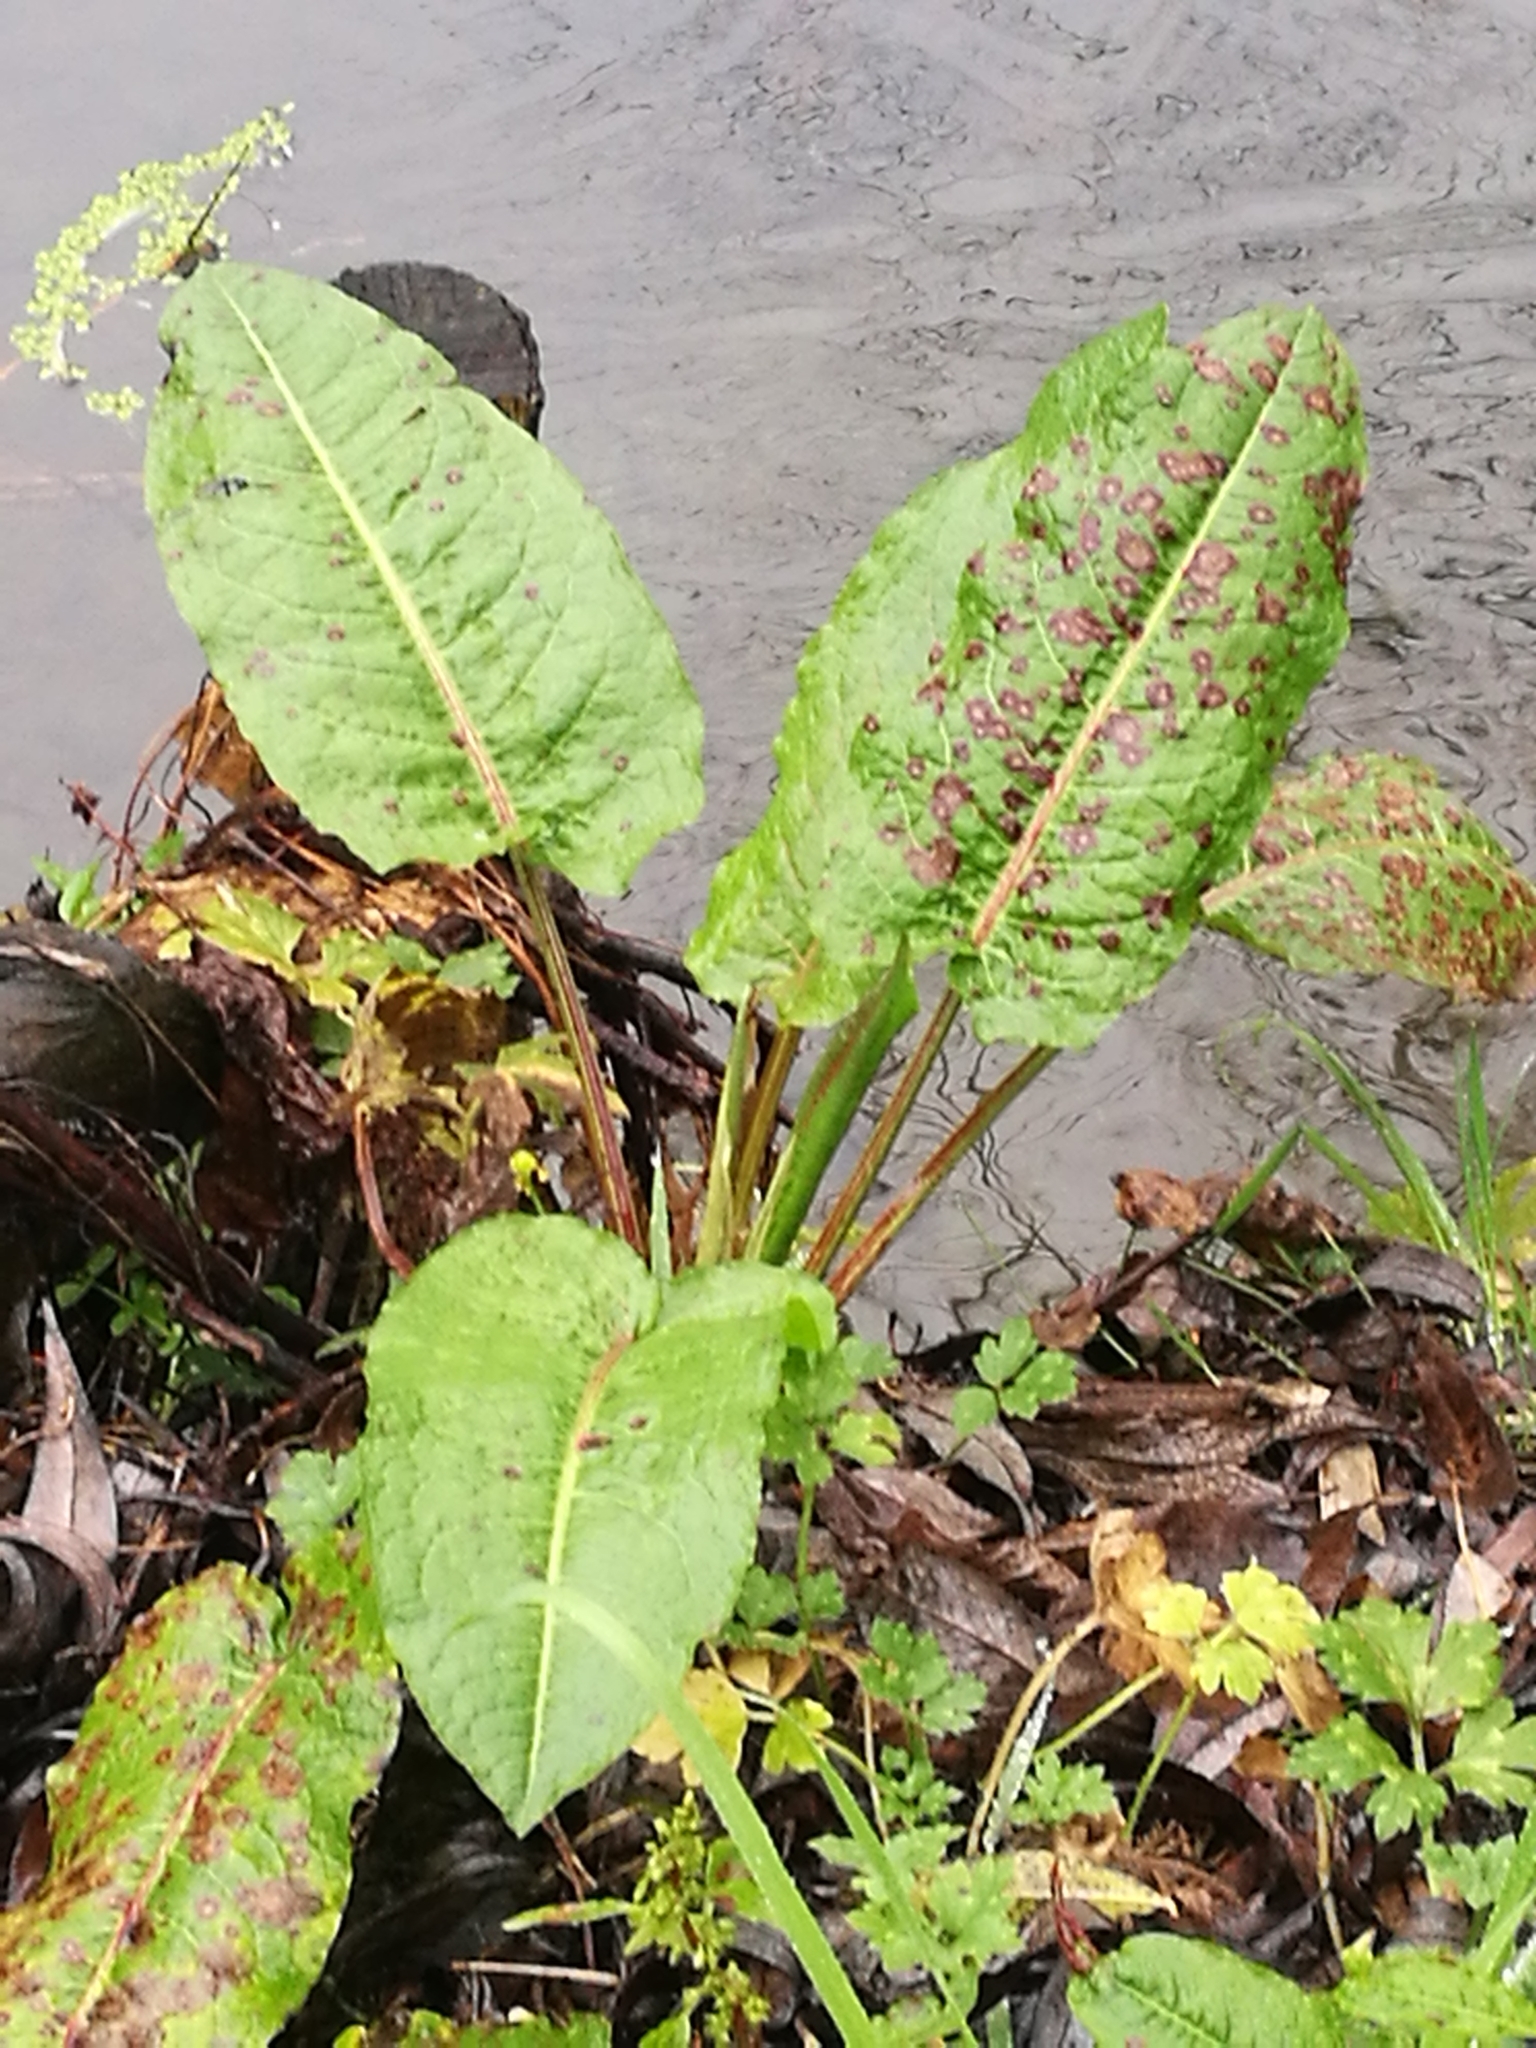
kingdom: Plantae
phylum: Tracheophyta
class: Magnoliopsida
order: Caryophyllales
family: Polygonaceae
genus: Rumex
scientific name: Rumex obtusifolius
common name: Bitter dock
